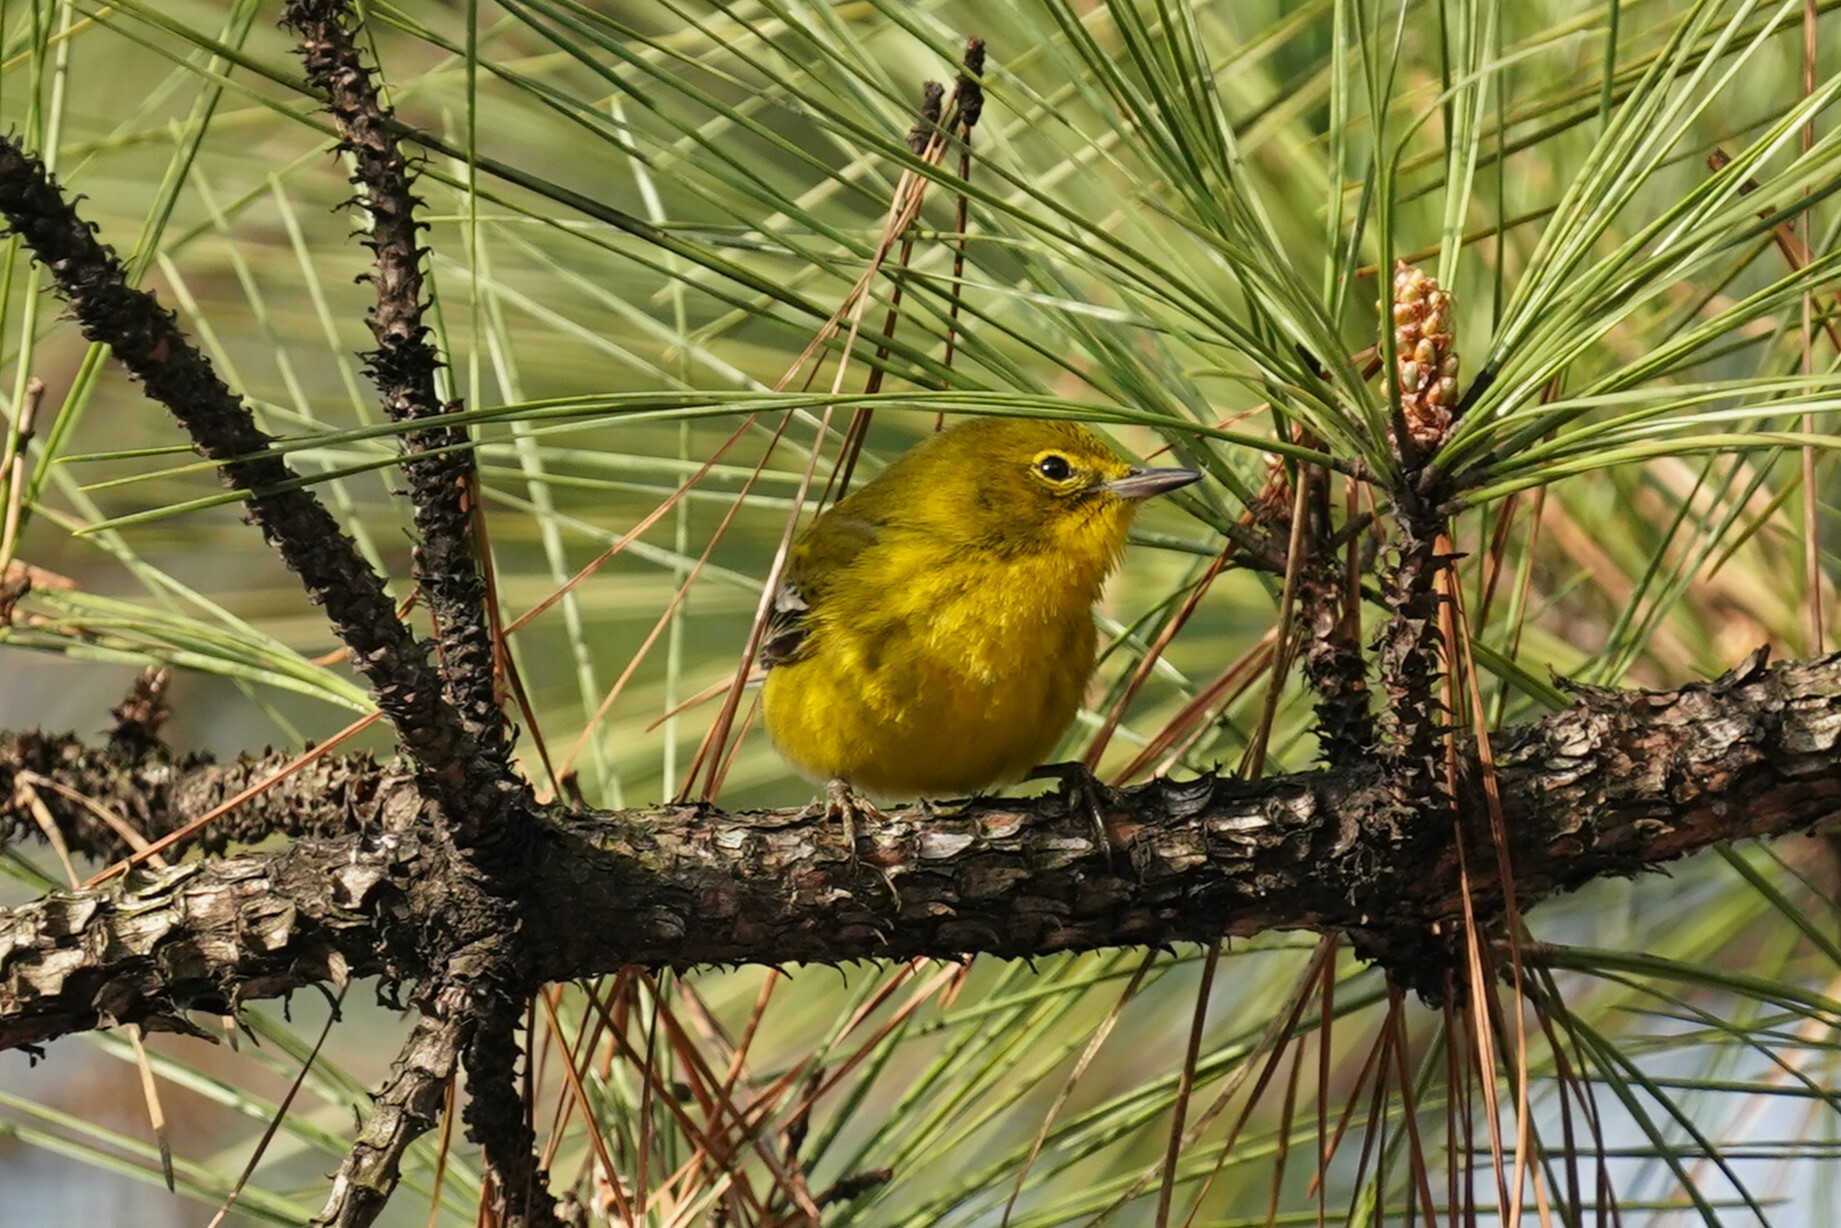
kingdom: Animalia
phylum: Chordata
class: Aves
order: Passeriformes
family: Parulidae
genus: Setophaga
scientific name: Setophaga pinus
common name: Pine warbler
